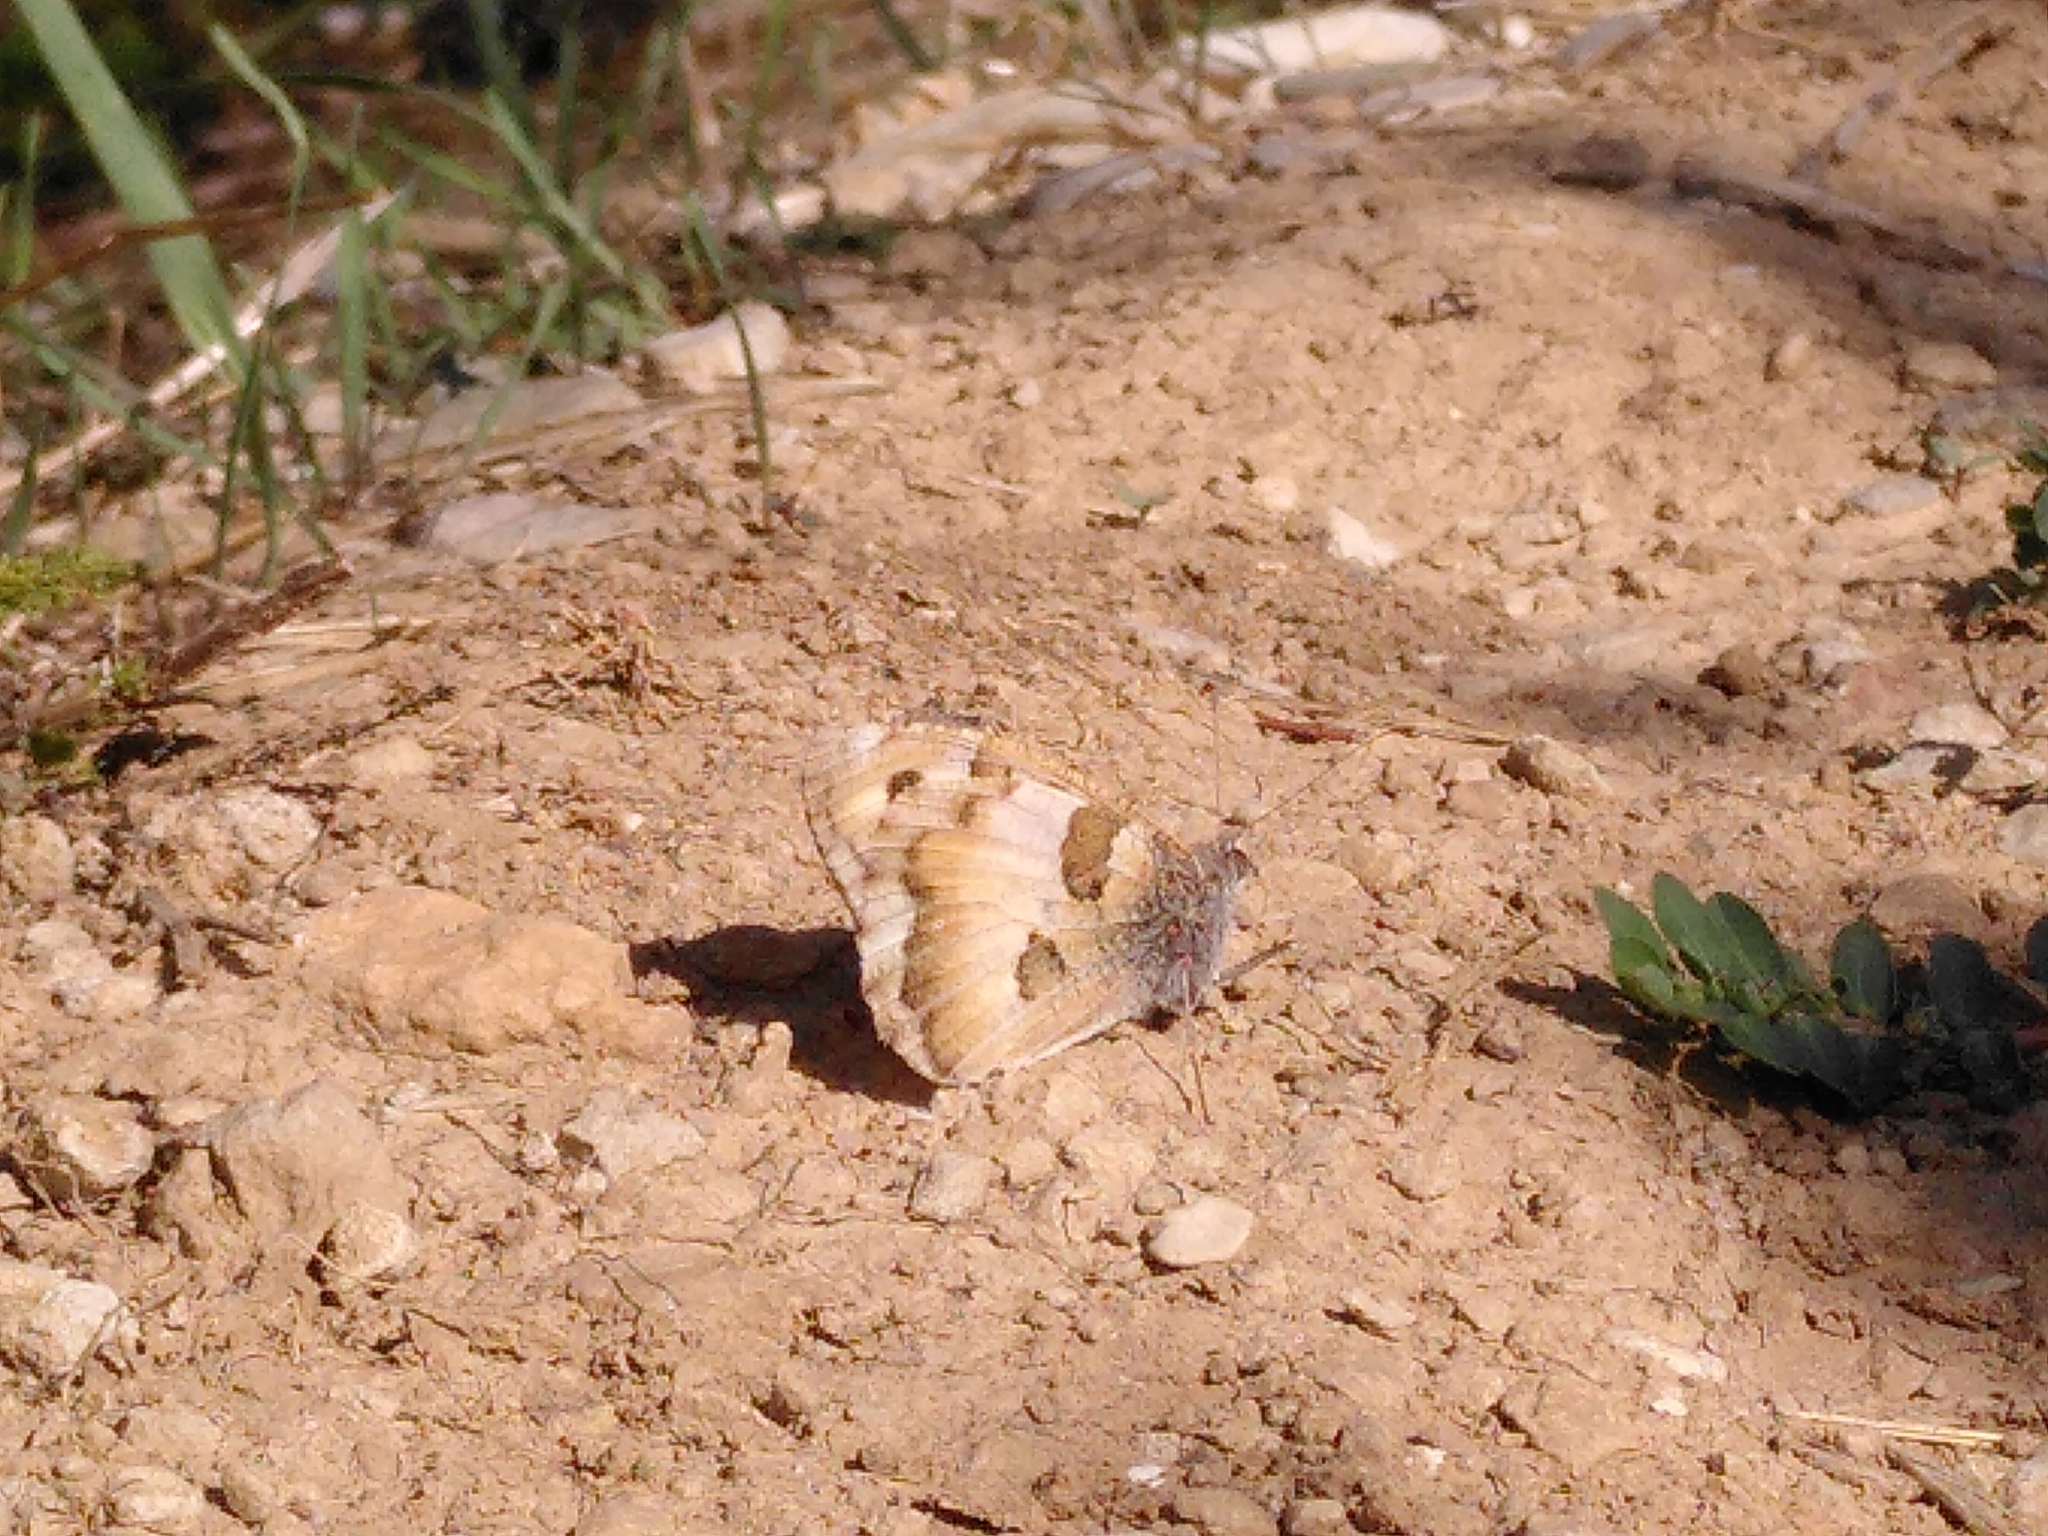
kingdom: Animalia
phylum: Arthropoda
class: Insecta
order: Lepidoptera
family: Nymphalidae
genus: Satyrus
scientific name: Satyrus briseis
